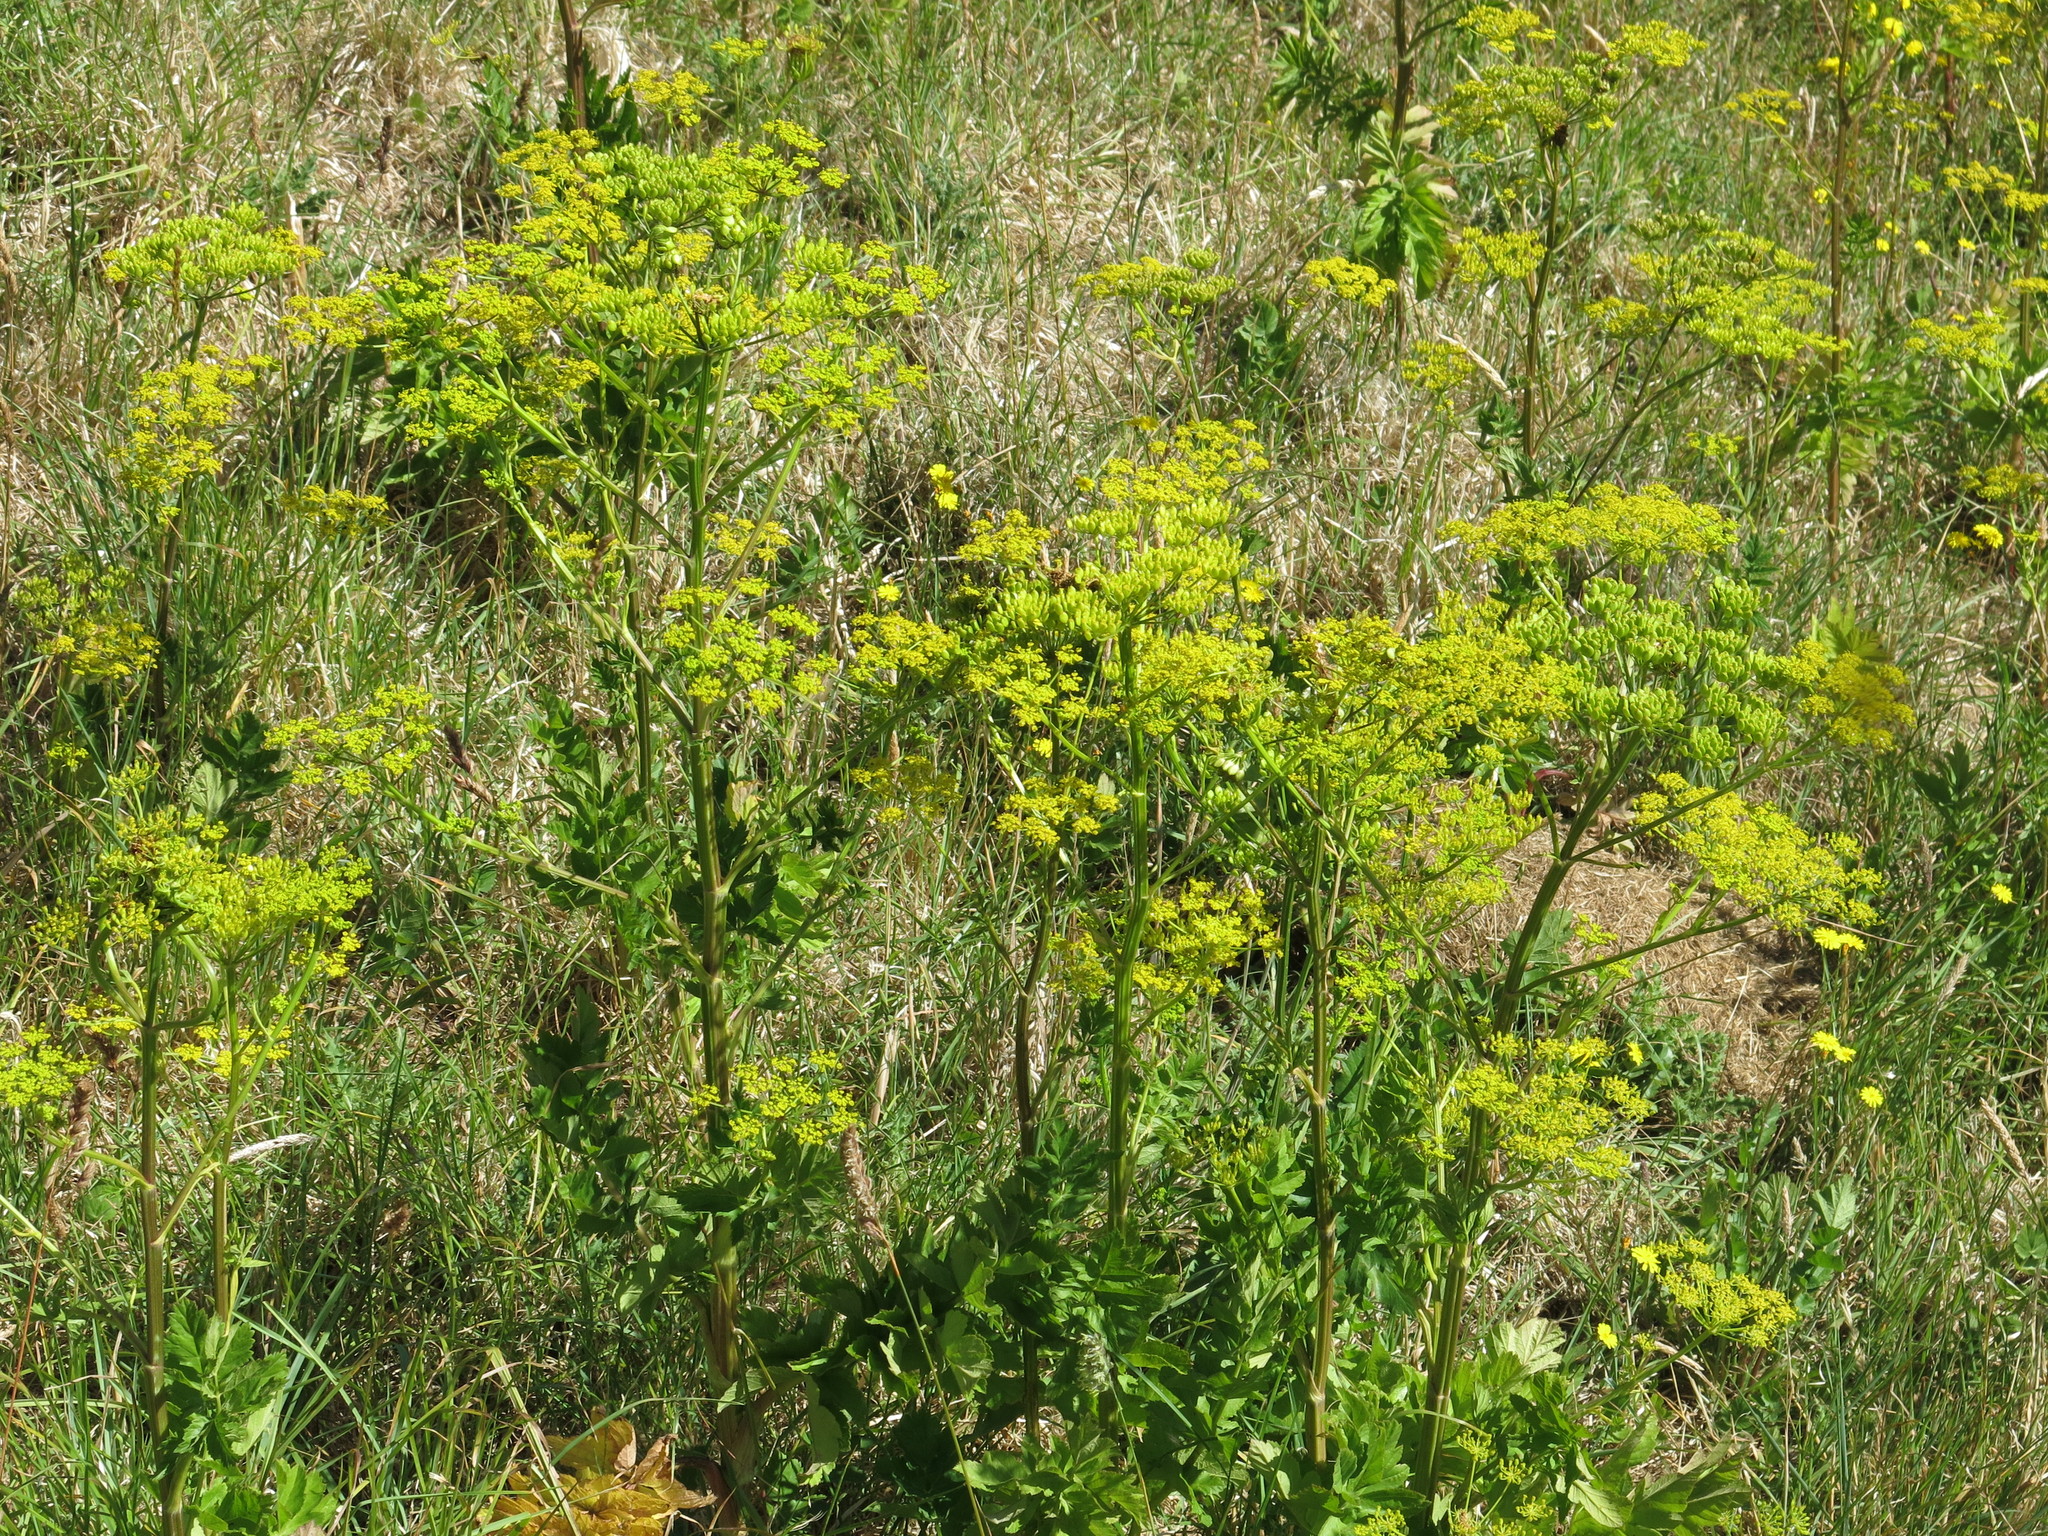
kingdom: Plantae
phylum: Tracheophyta
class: Magnoliopsida
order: Apiales
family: Apiaceae
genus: Pastinaca
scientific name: Pastinaca sativa
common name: Wild parsnip
